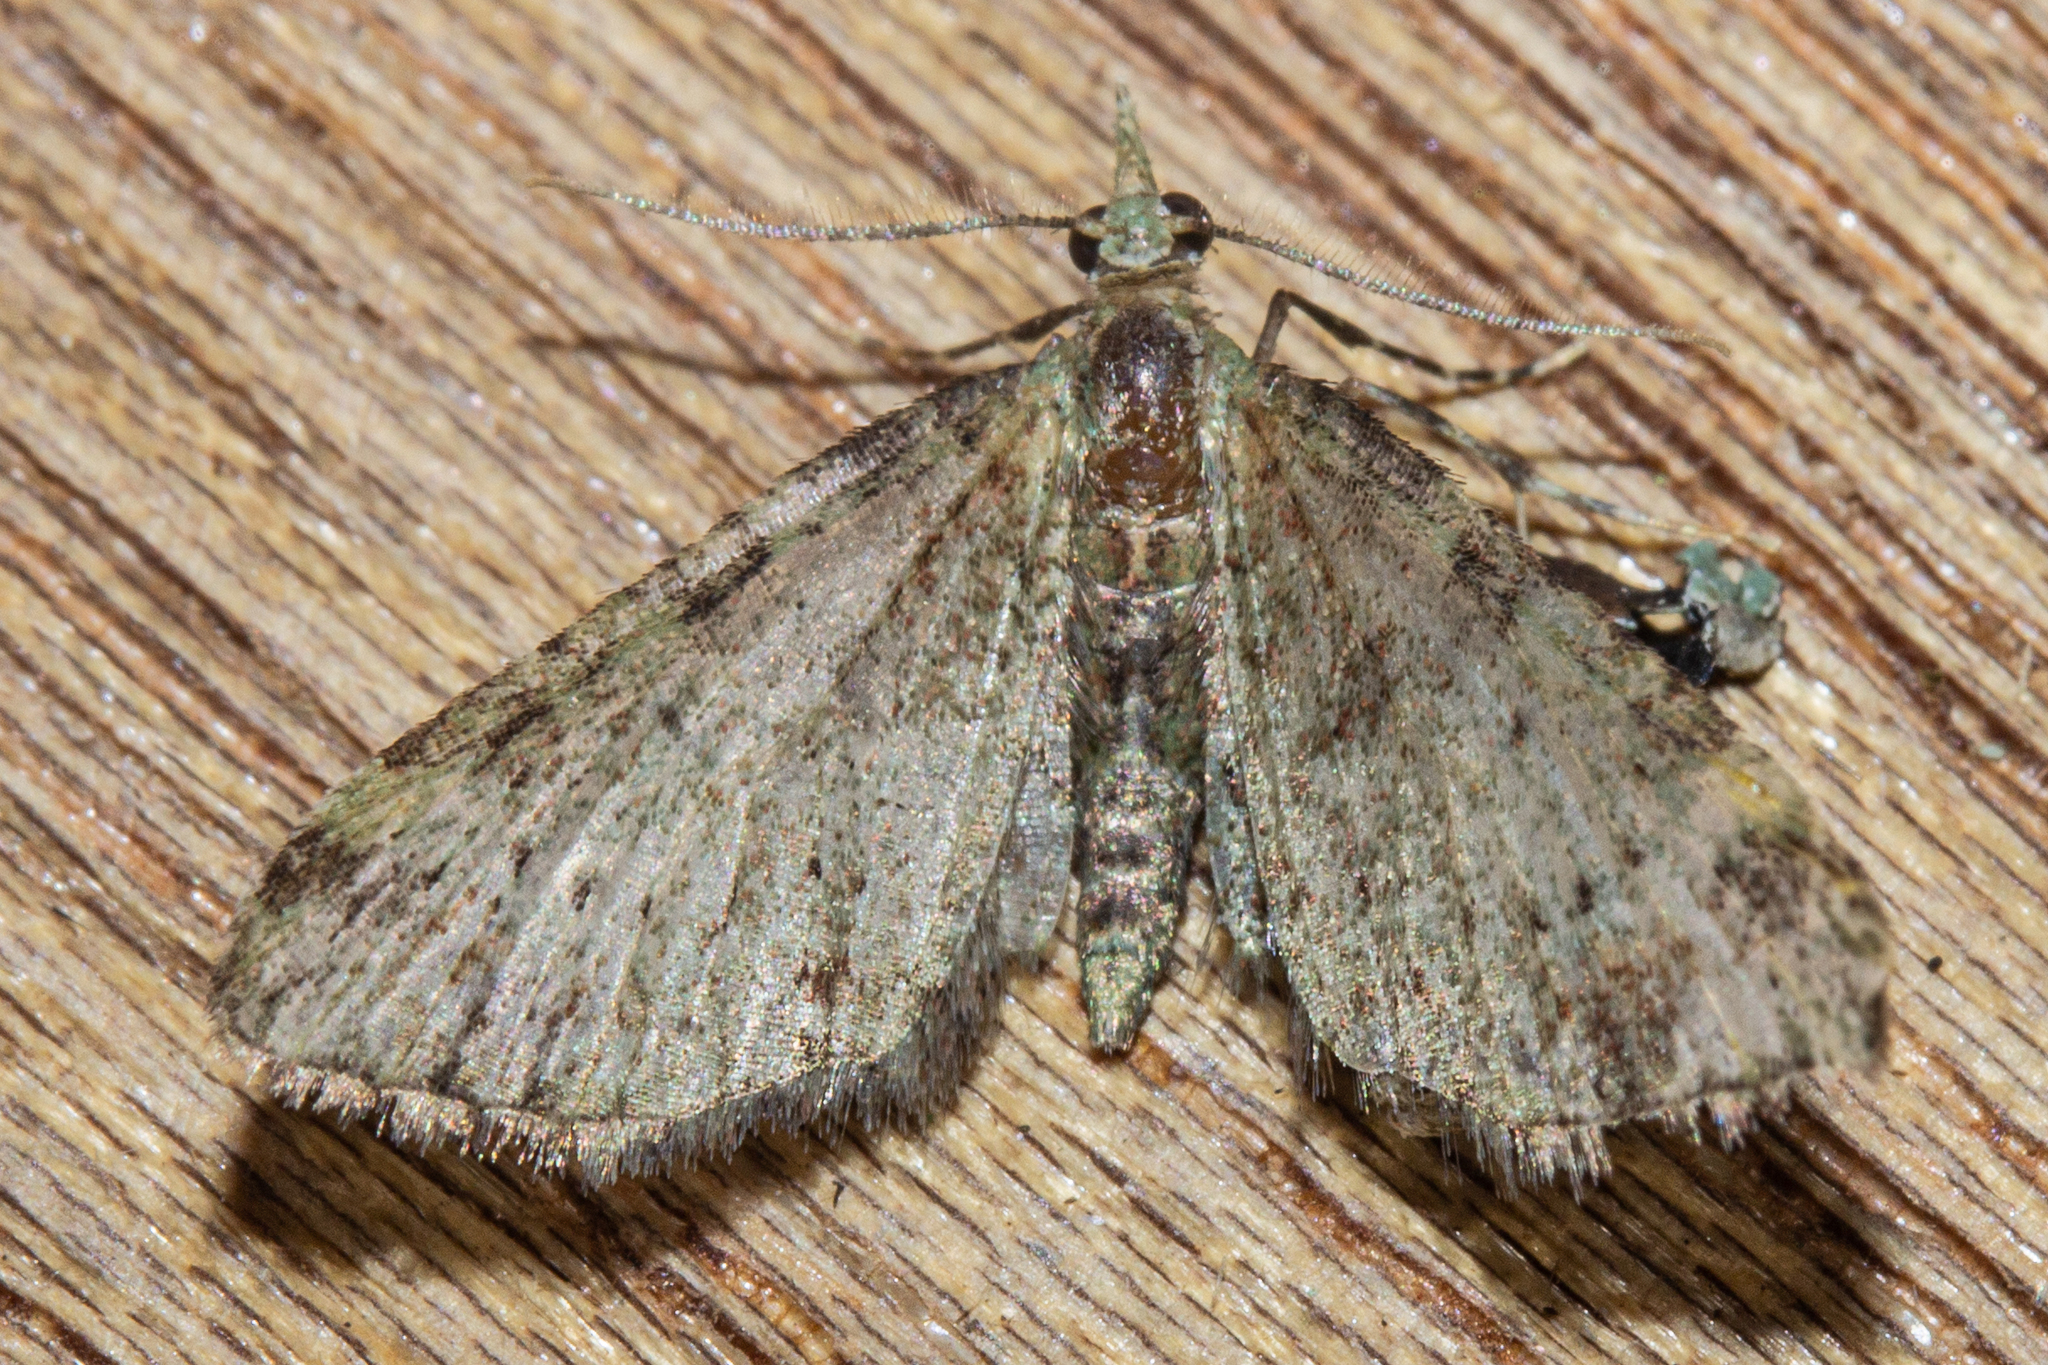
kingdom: Animalia
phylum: Arthropoda
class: Insecta
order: Lepidoptera
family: Geometridae
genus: Pasiphila
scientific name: Pasiphila plinthina
